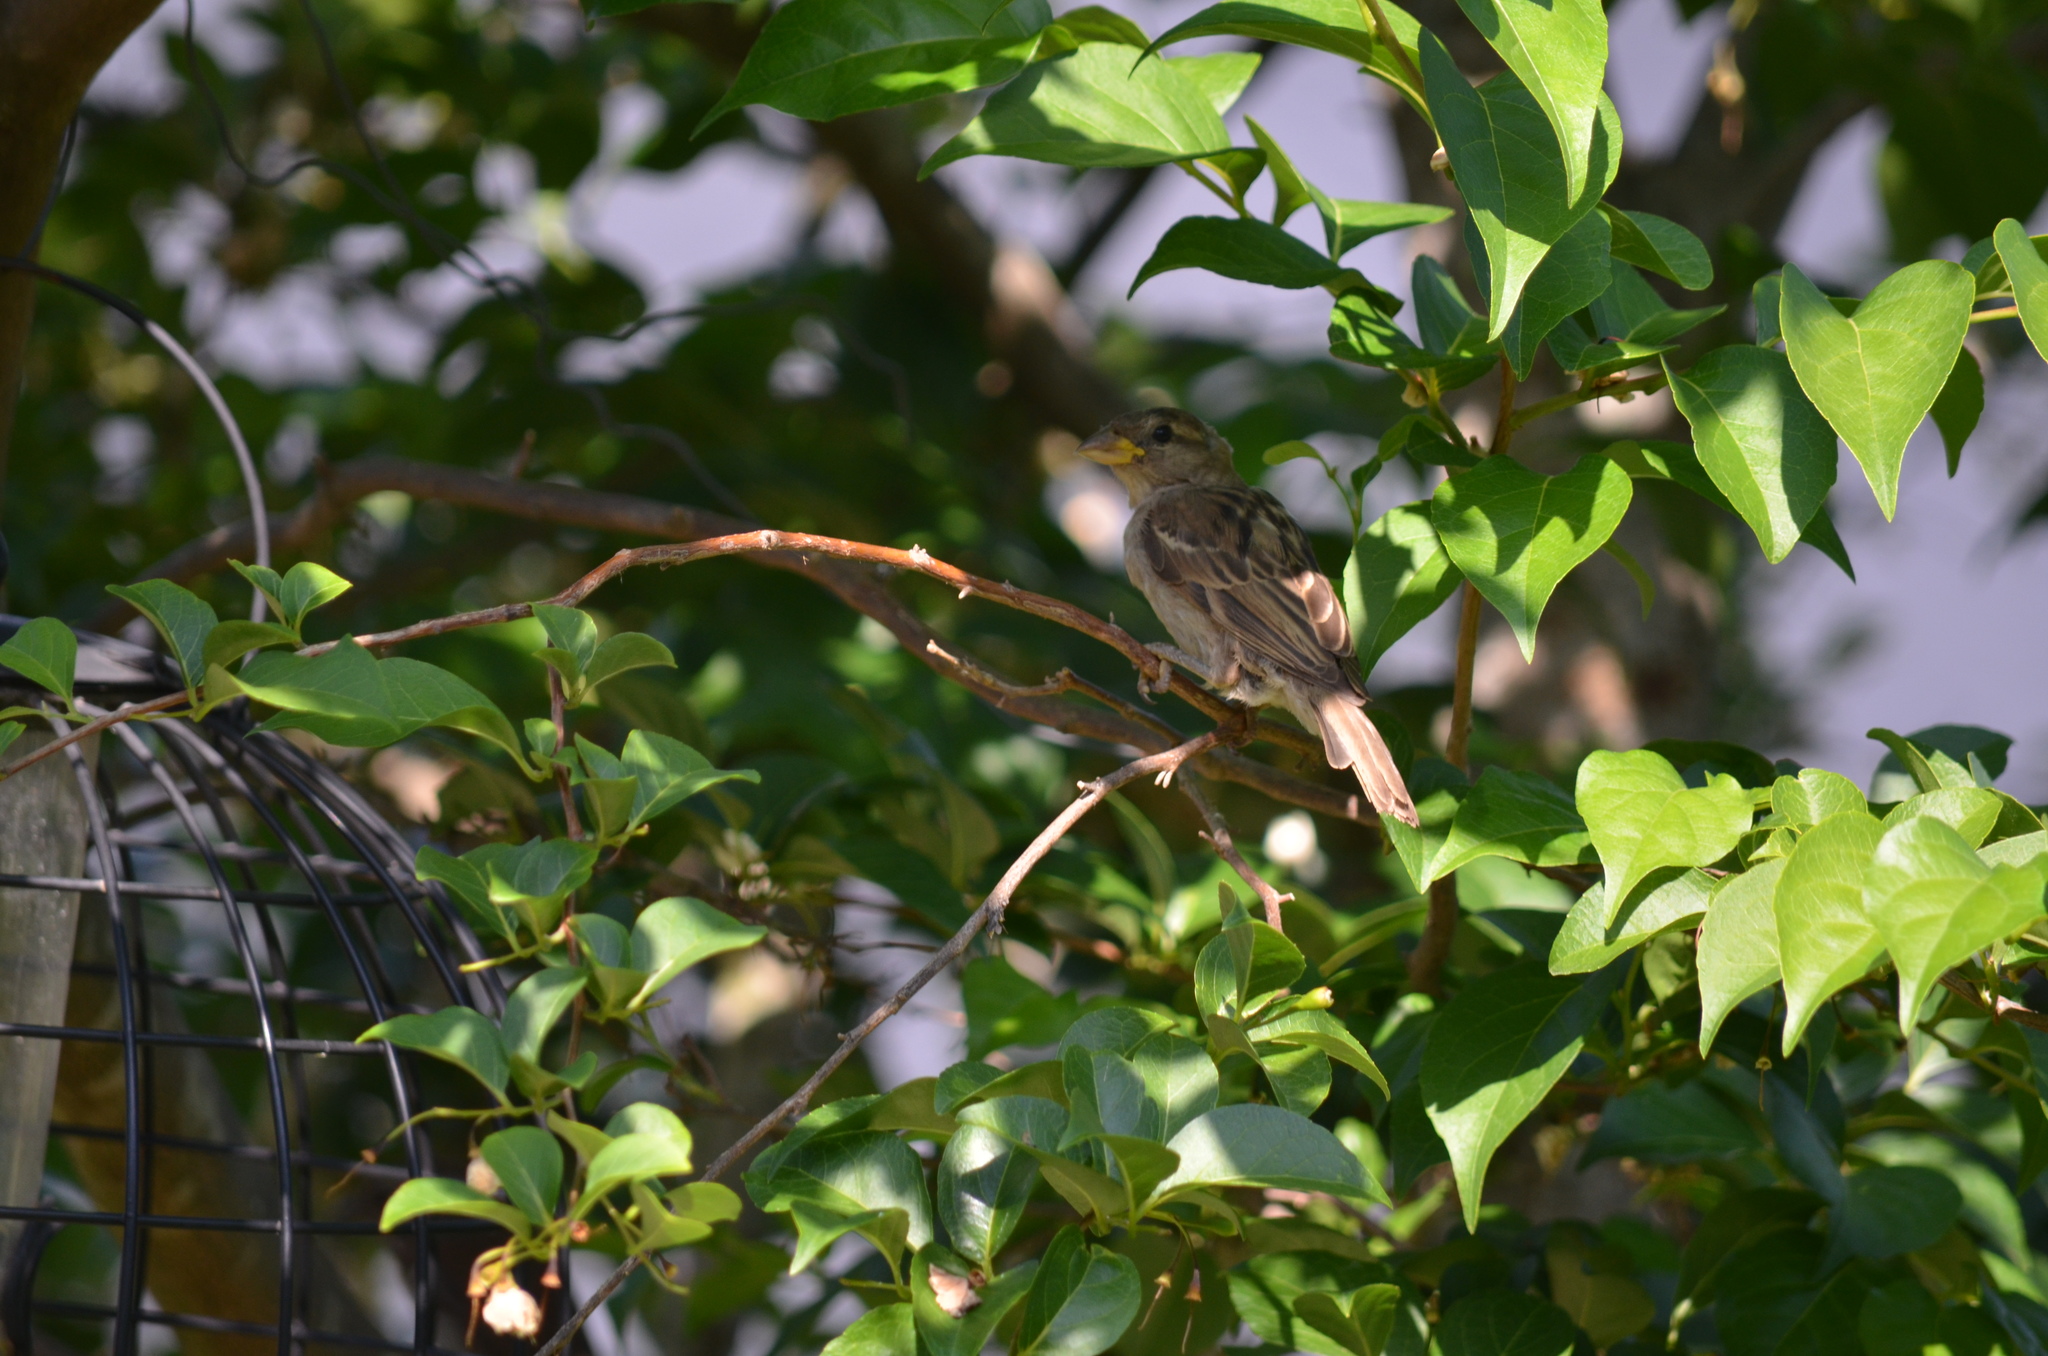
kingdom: Animalia
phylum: Chordata
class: Aves
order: Passeriformes
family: Passeridae
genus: Passer
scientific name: Passer domesticus
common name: House sparrow
